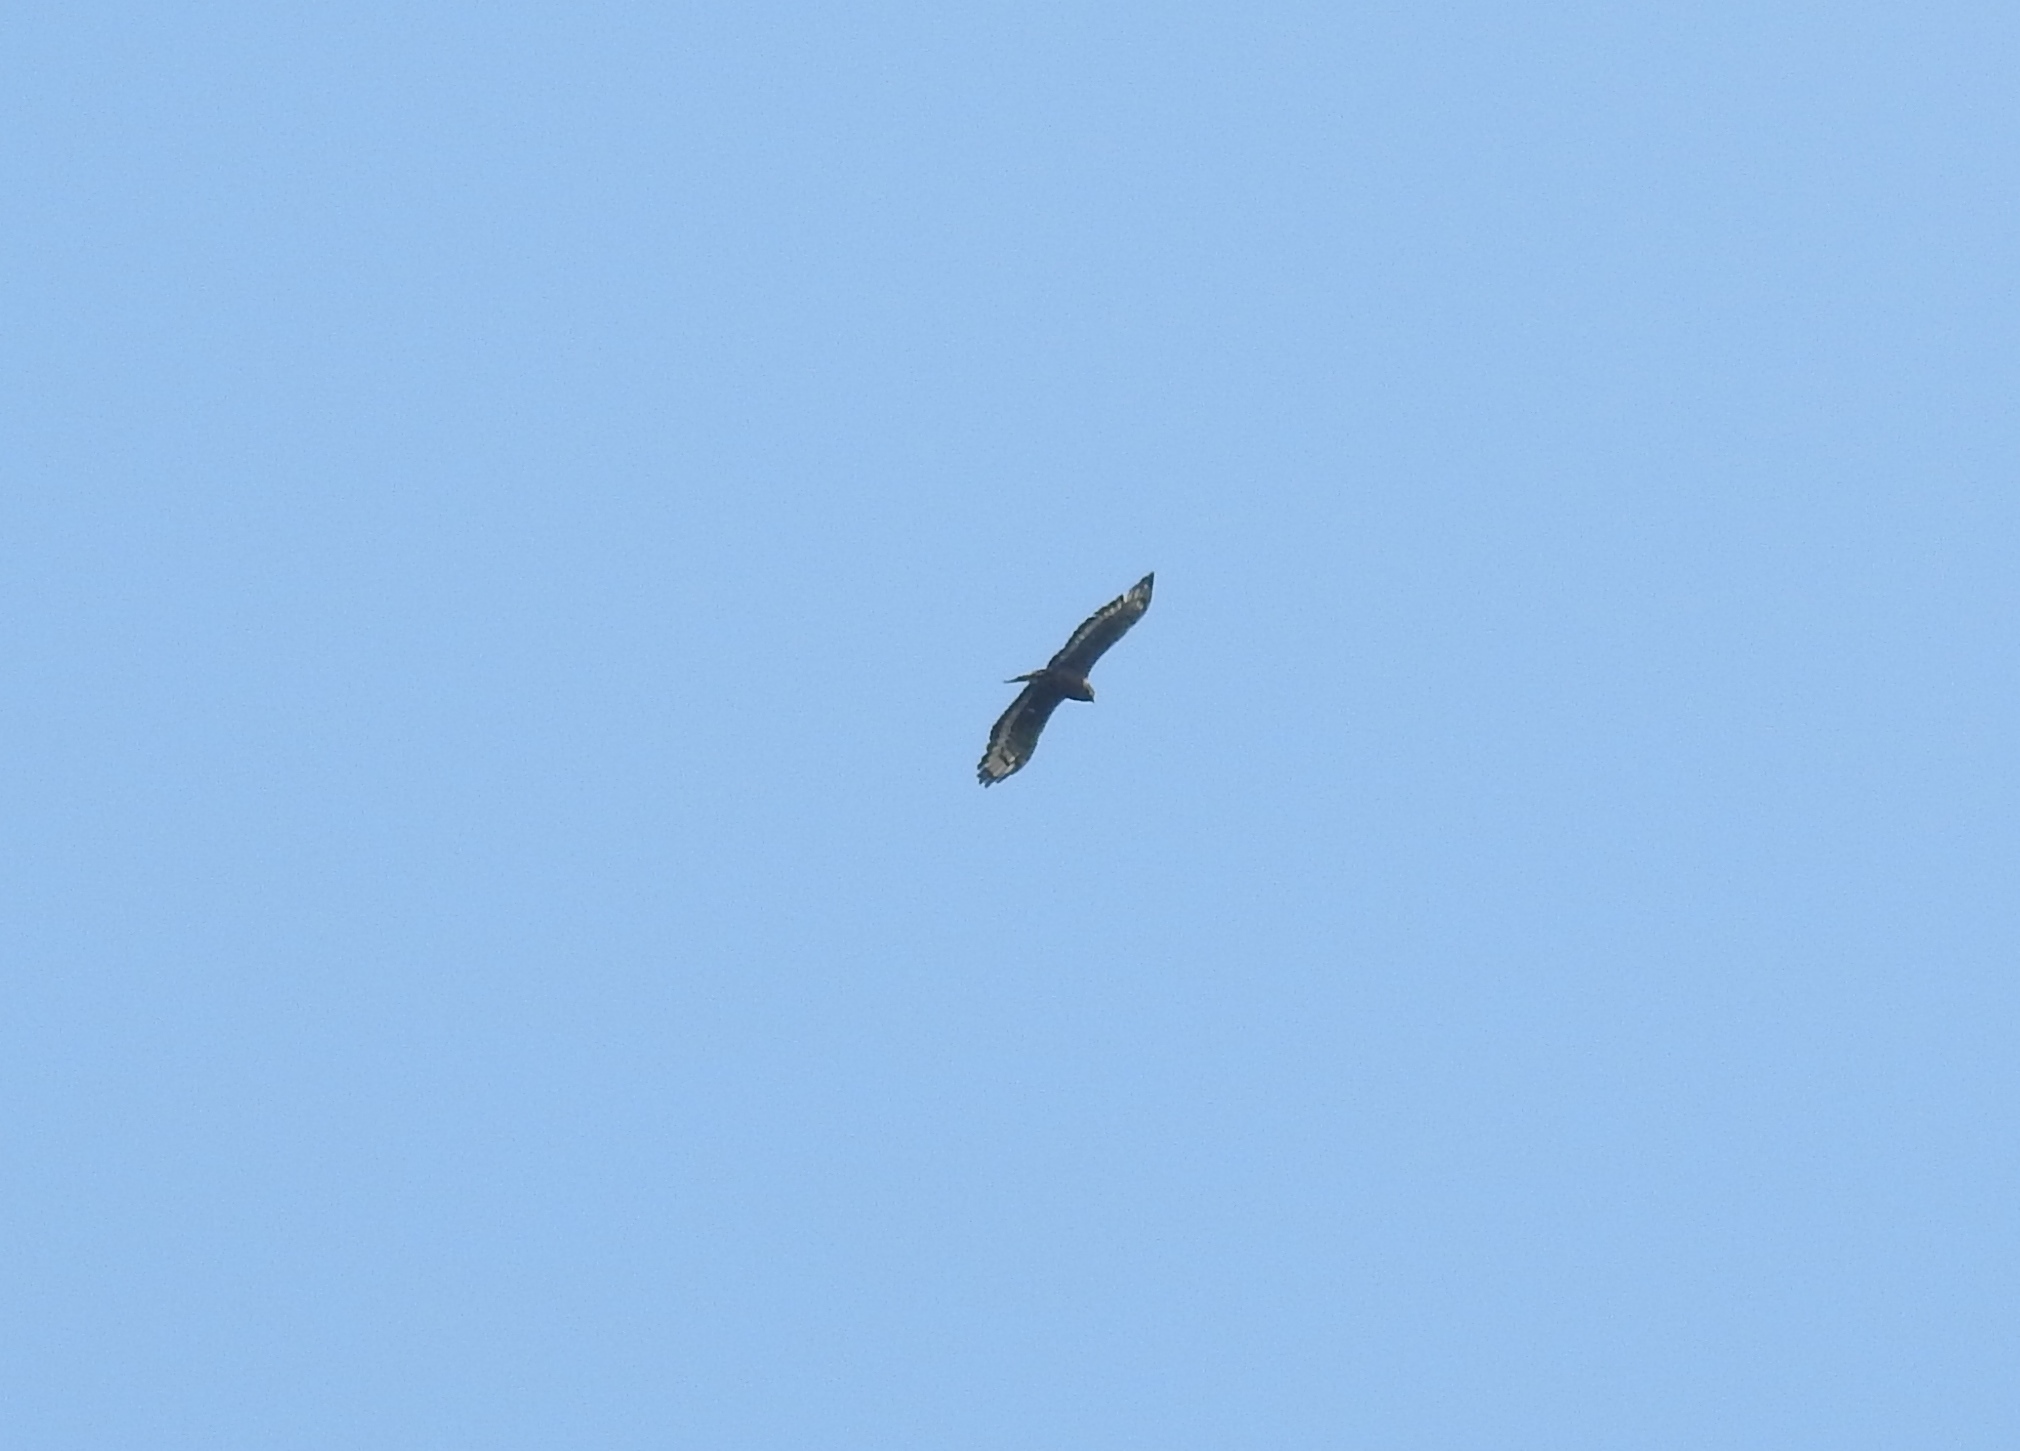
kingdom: Animalia
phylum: Chordata
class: Aves
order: Accipitriformes
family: Accipitridae
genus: Spilornis
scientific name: Spilornis cheela
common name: Crested serpent eagle
